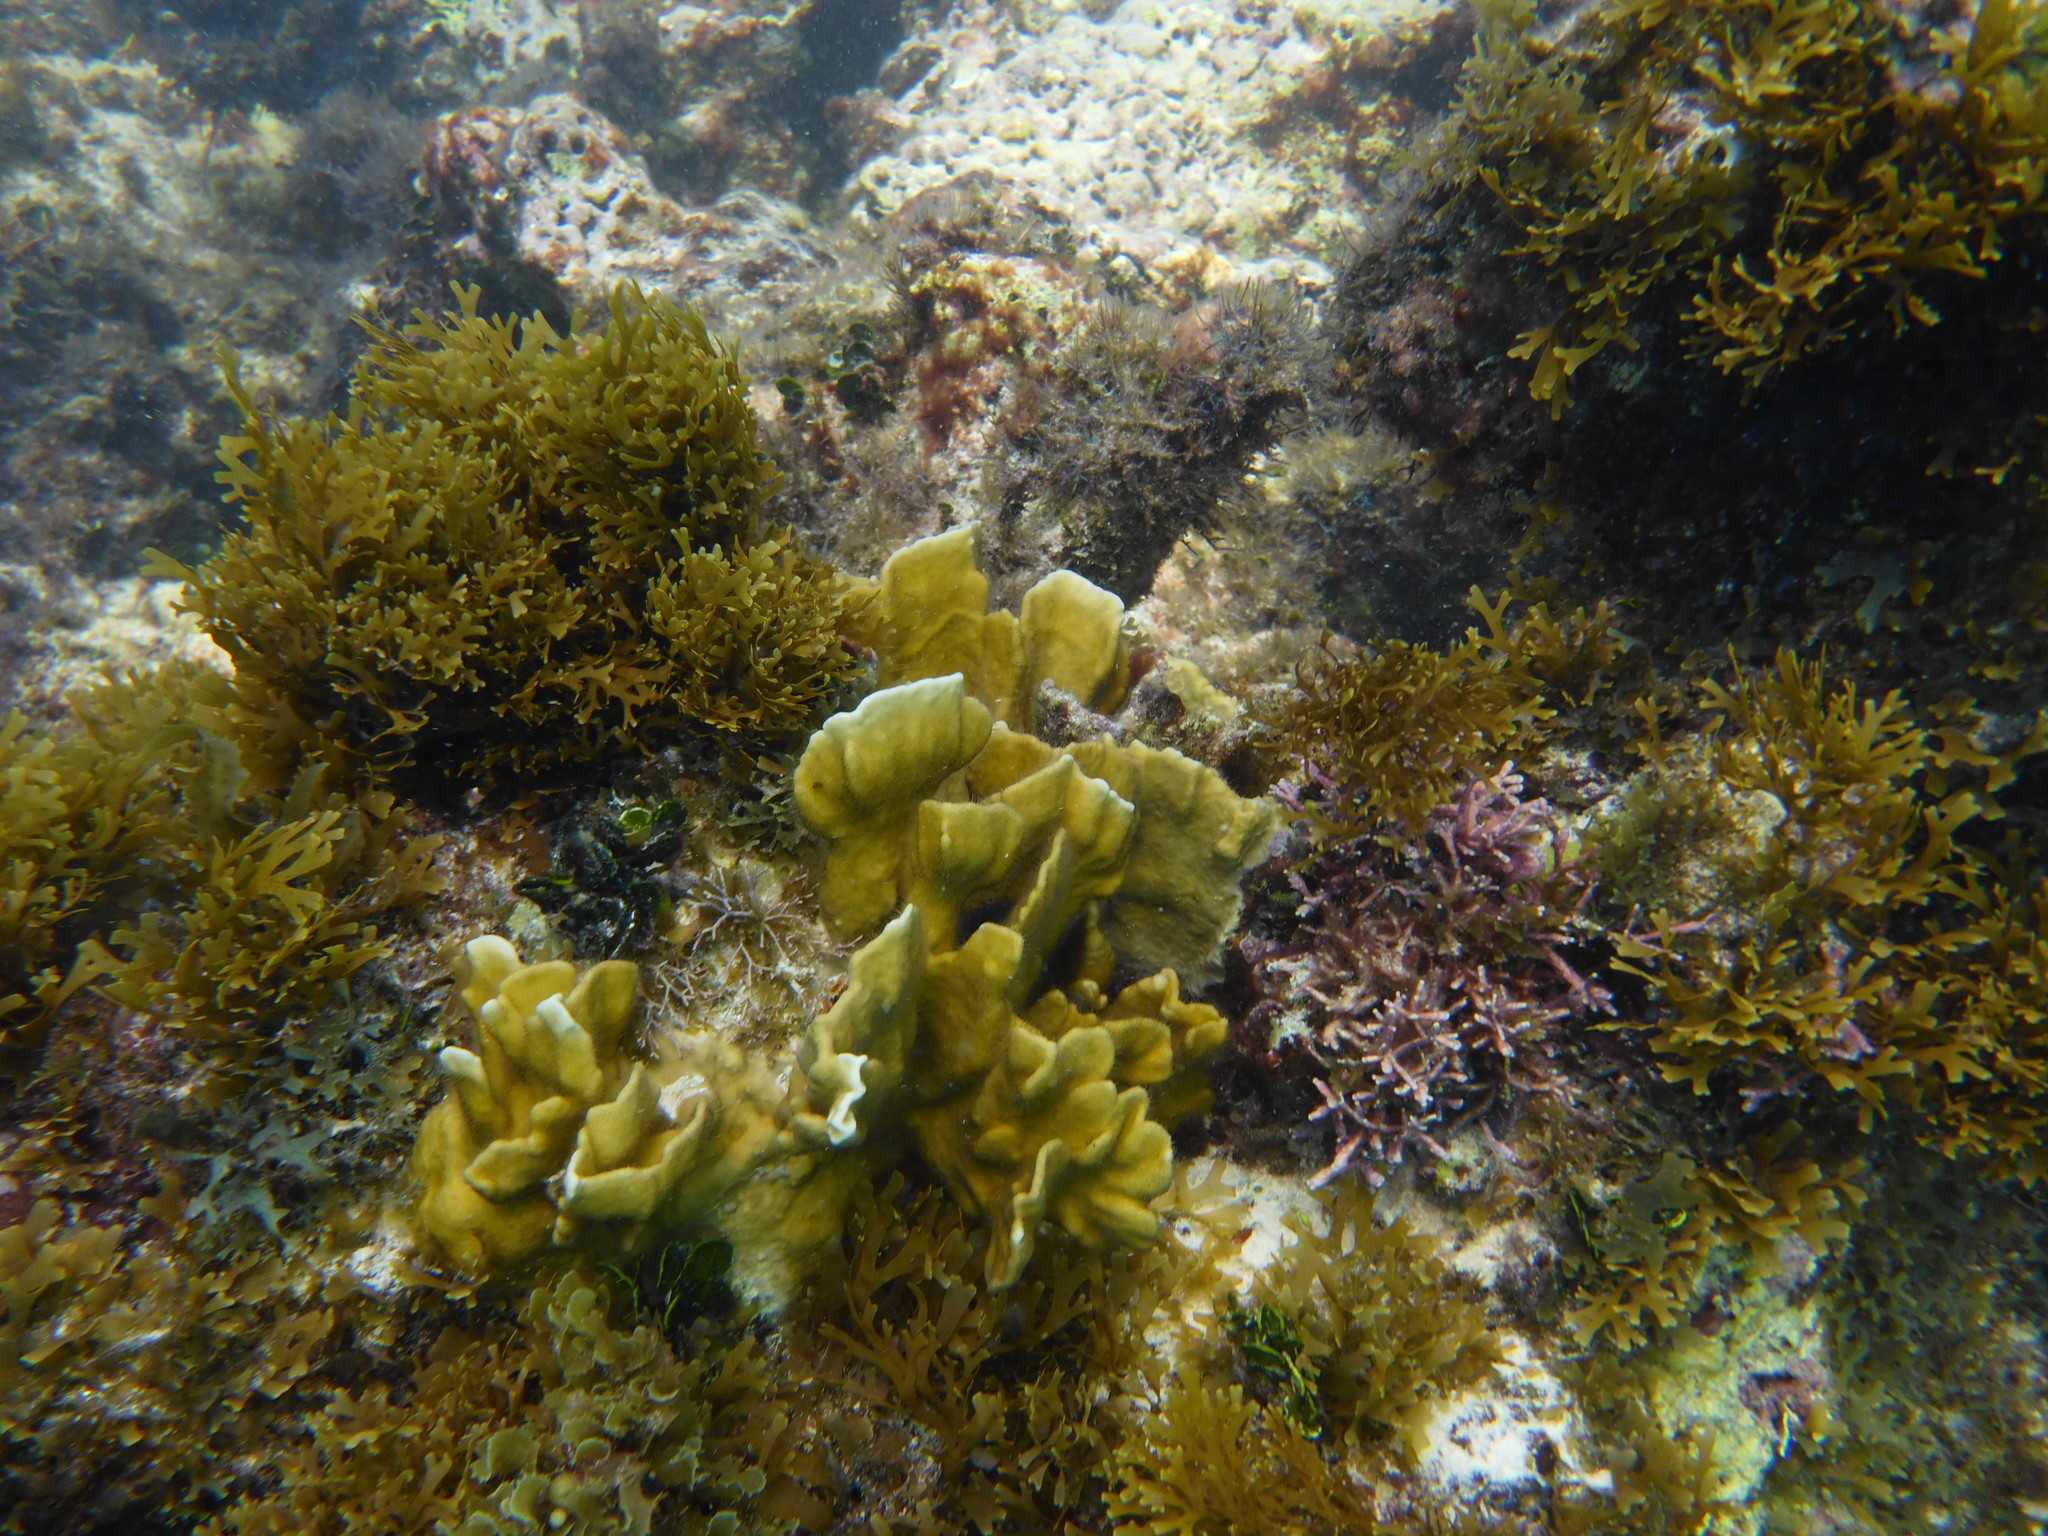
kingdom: Animalia
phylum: Cnidaria
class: Hydrozoa
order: Anthoathecata
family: Milleporidae
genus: Millepora
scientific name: Millepora complanata
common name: Bladed fire coral
